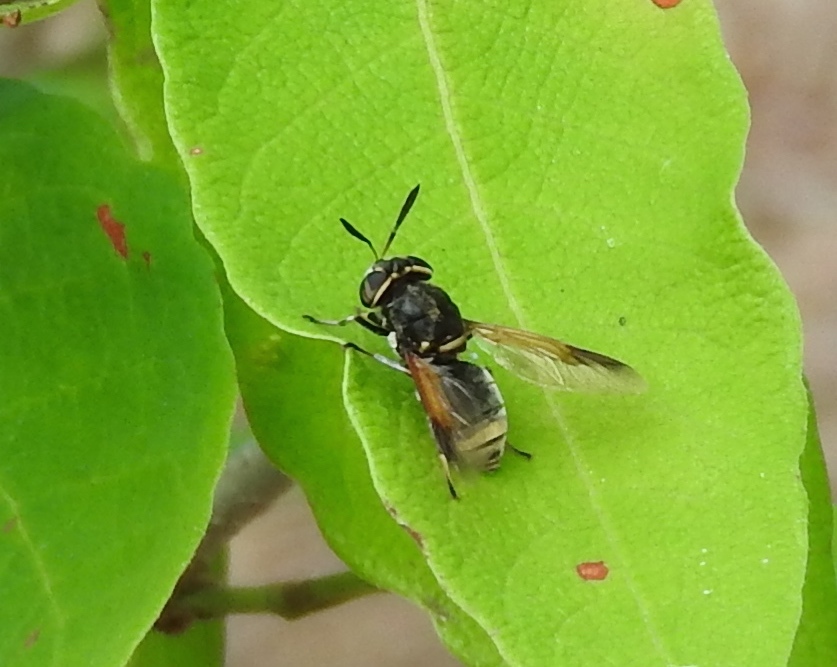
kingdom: Animalia
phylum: Arthropoda
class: Insecta
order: Diptera
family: Stratiomyidae
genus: Hoplitimyia
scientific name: Hoplitimyia
